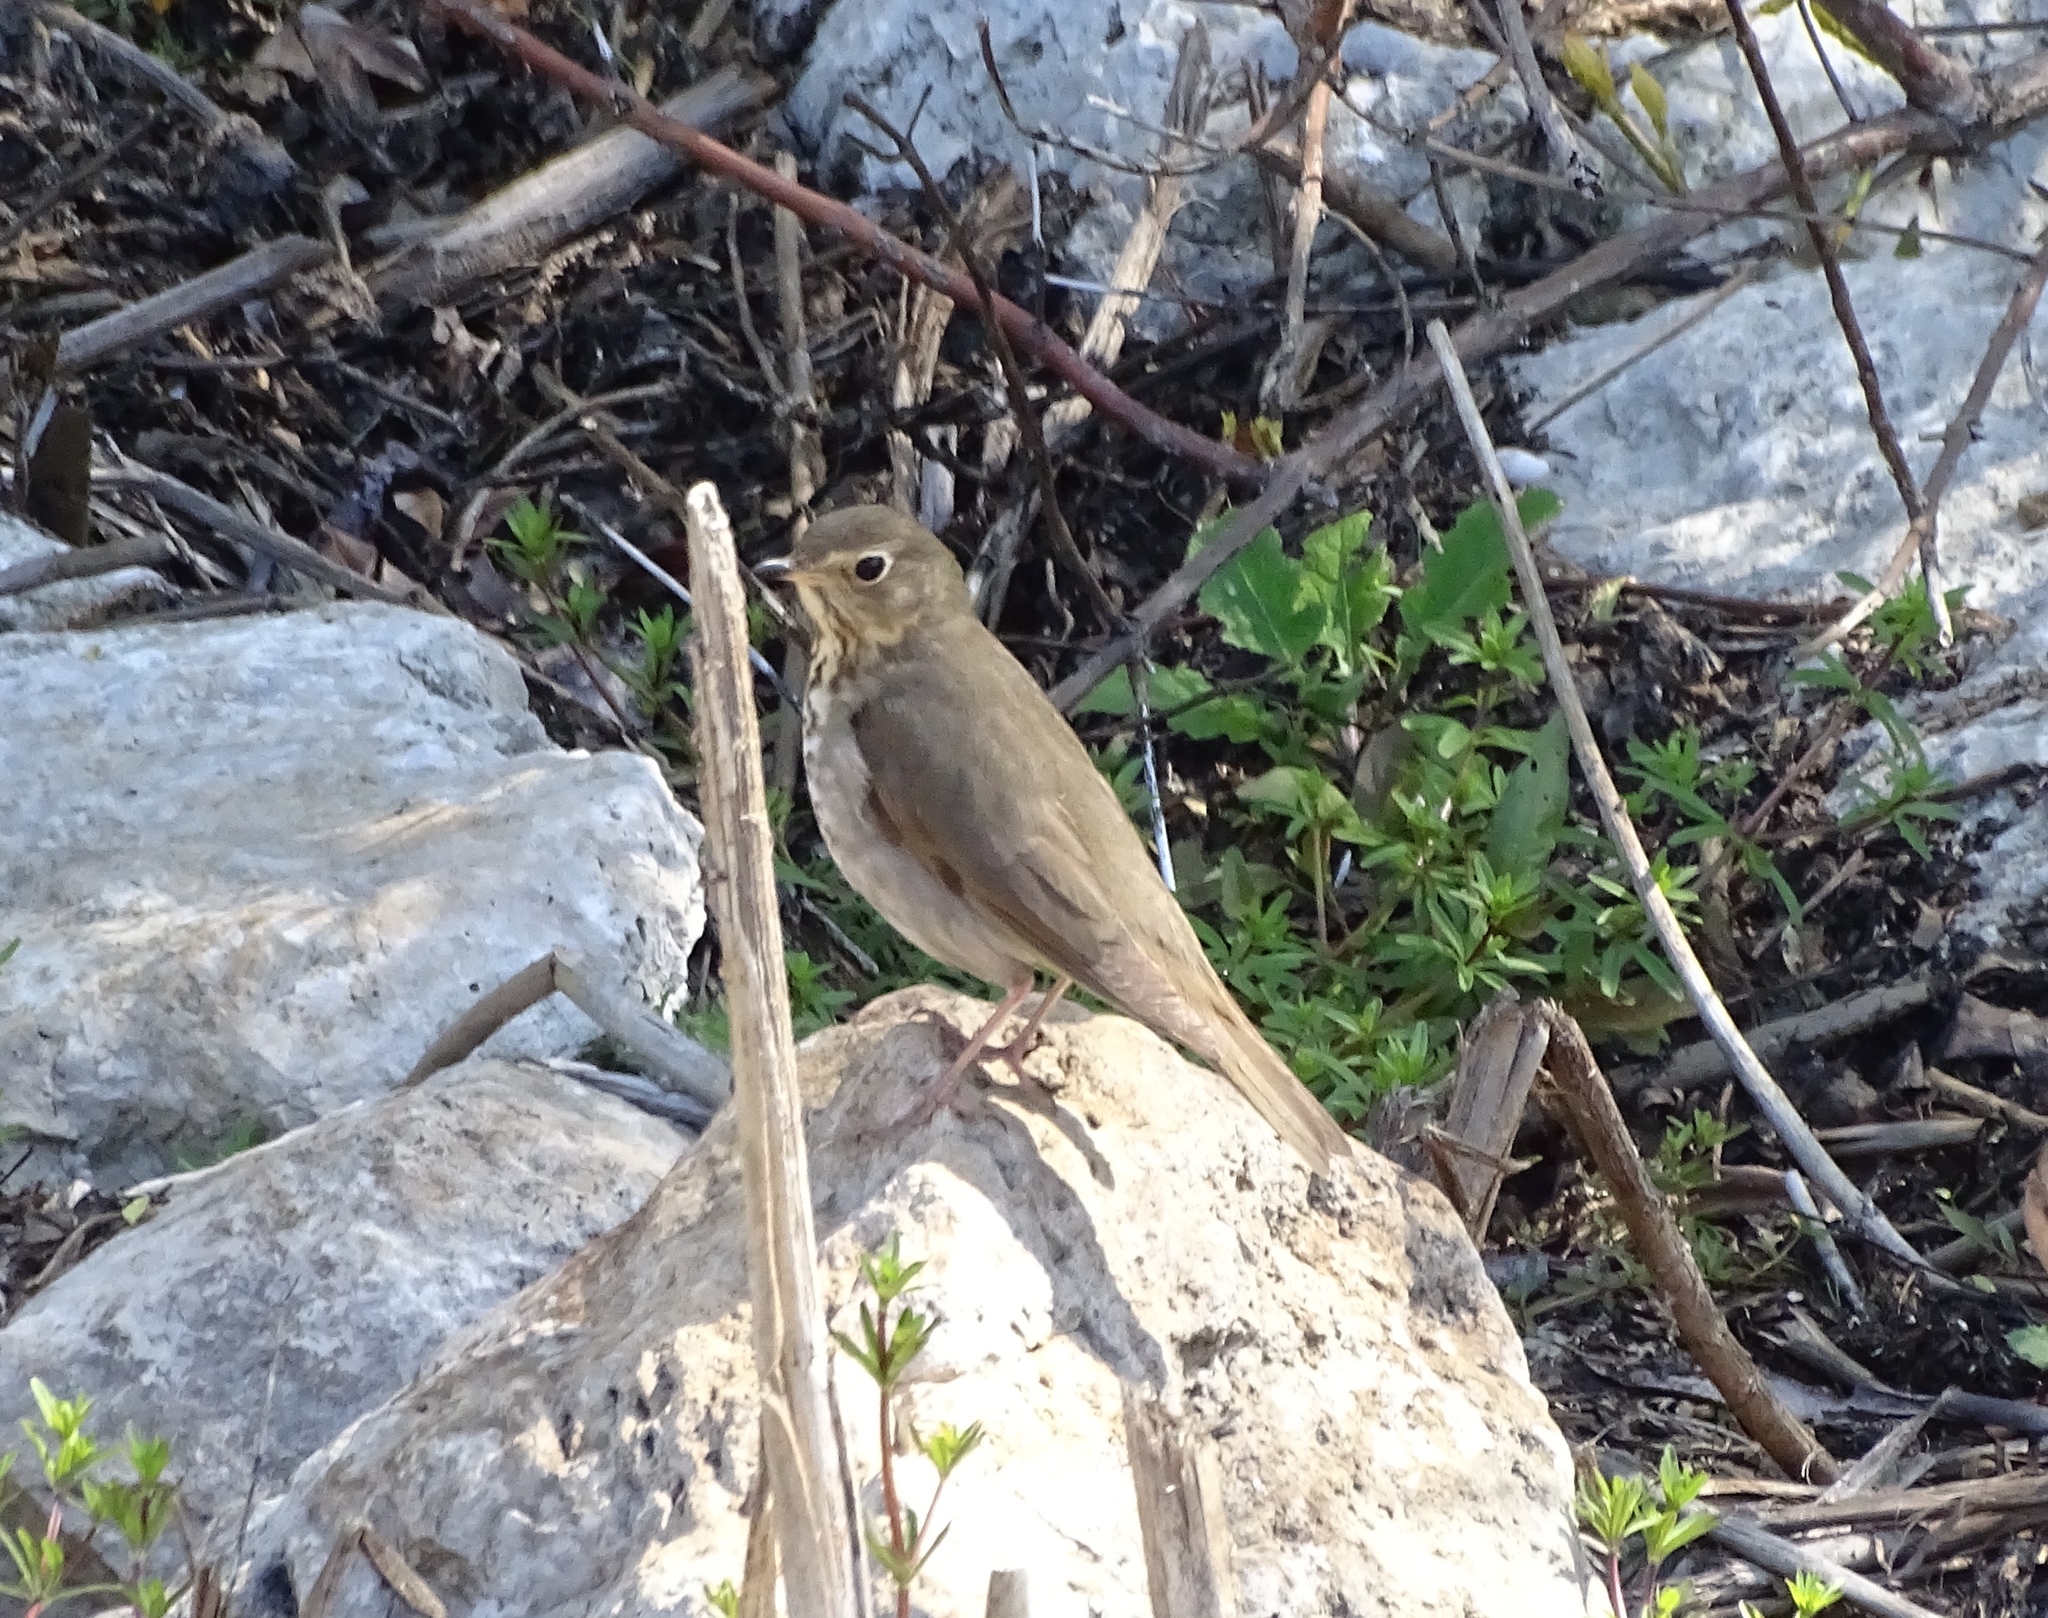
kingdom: Animalia
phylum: Chordata
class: Aves
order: Passeriformes
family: Turdidae
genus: Catharus
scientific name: Catharus ustulatus
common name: Swainson's thrush
